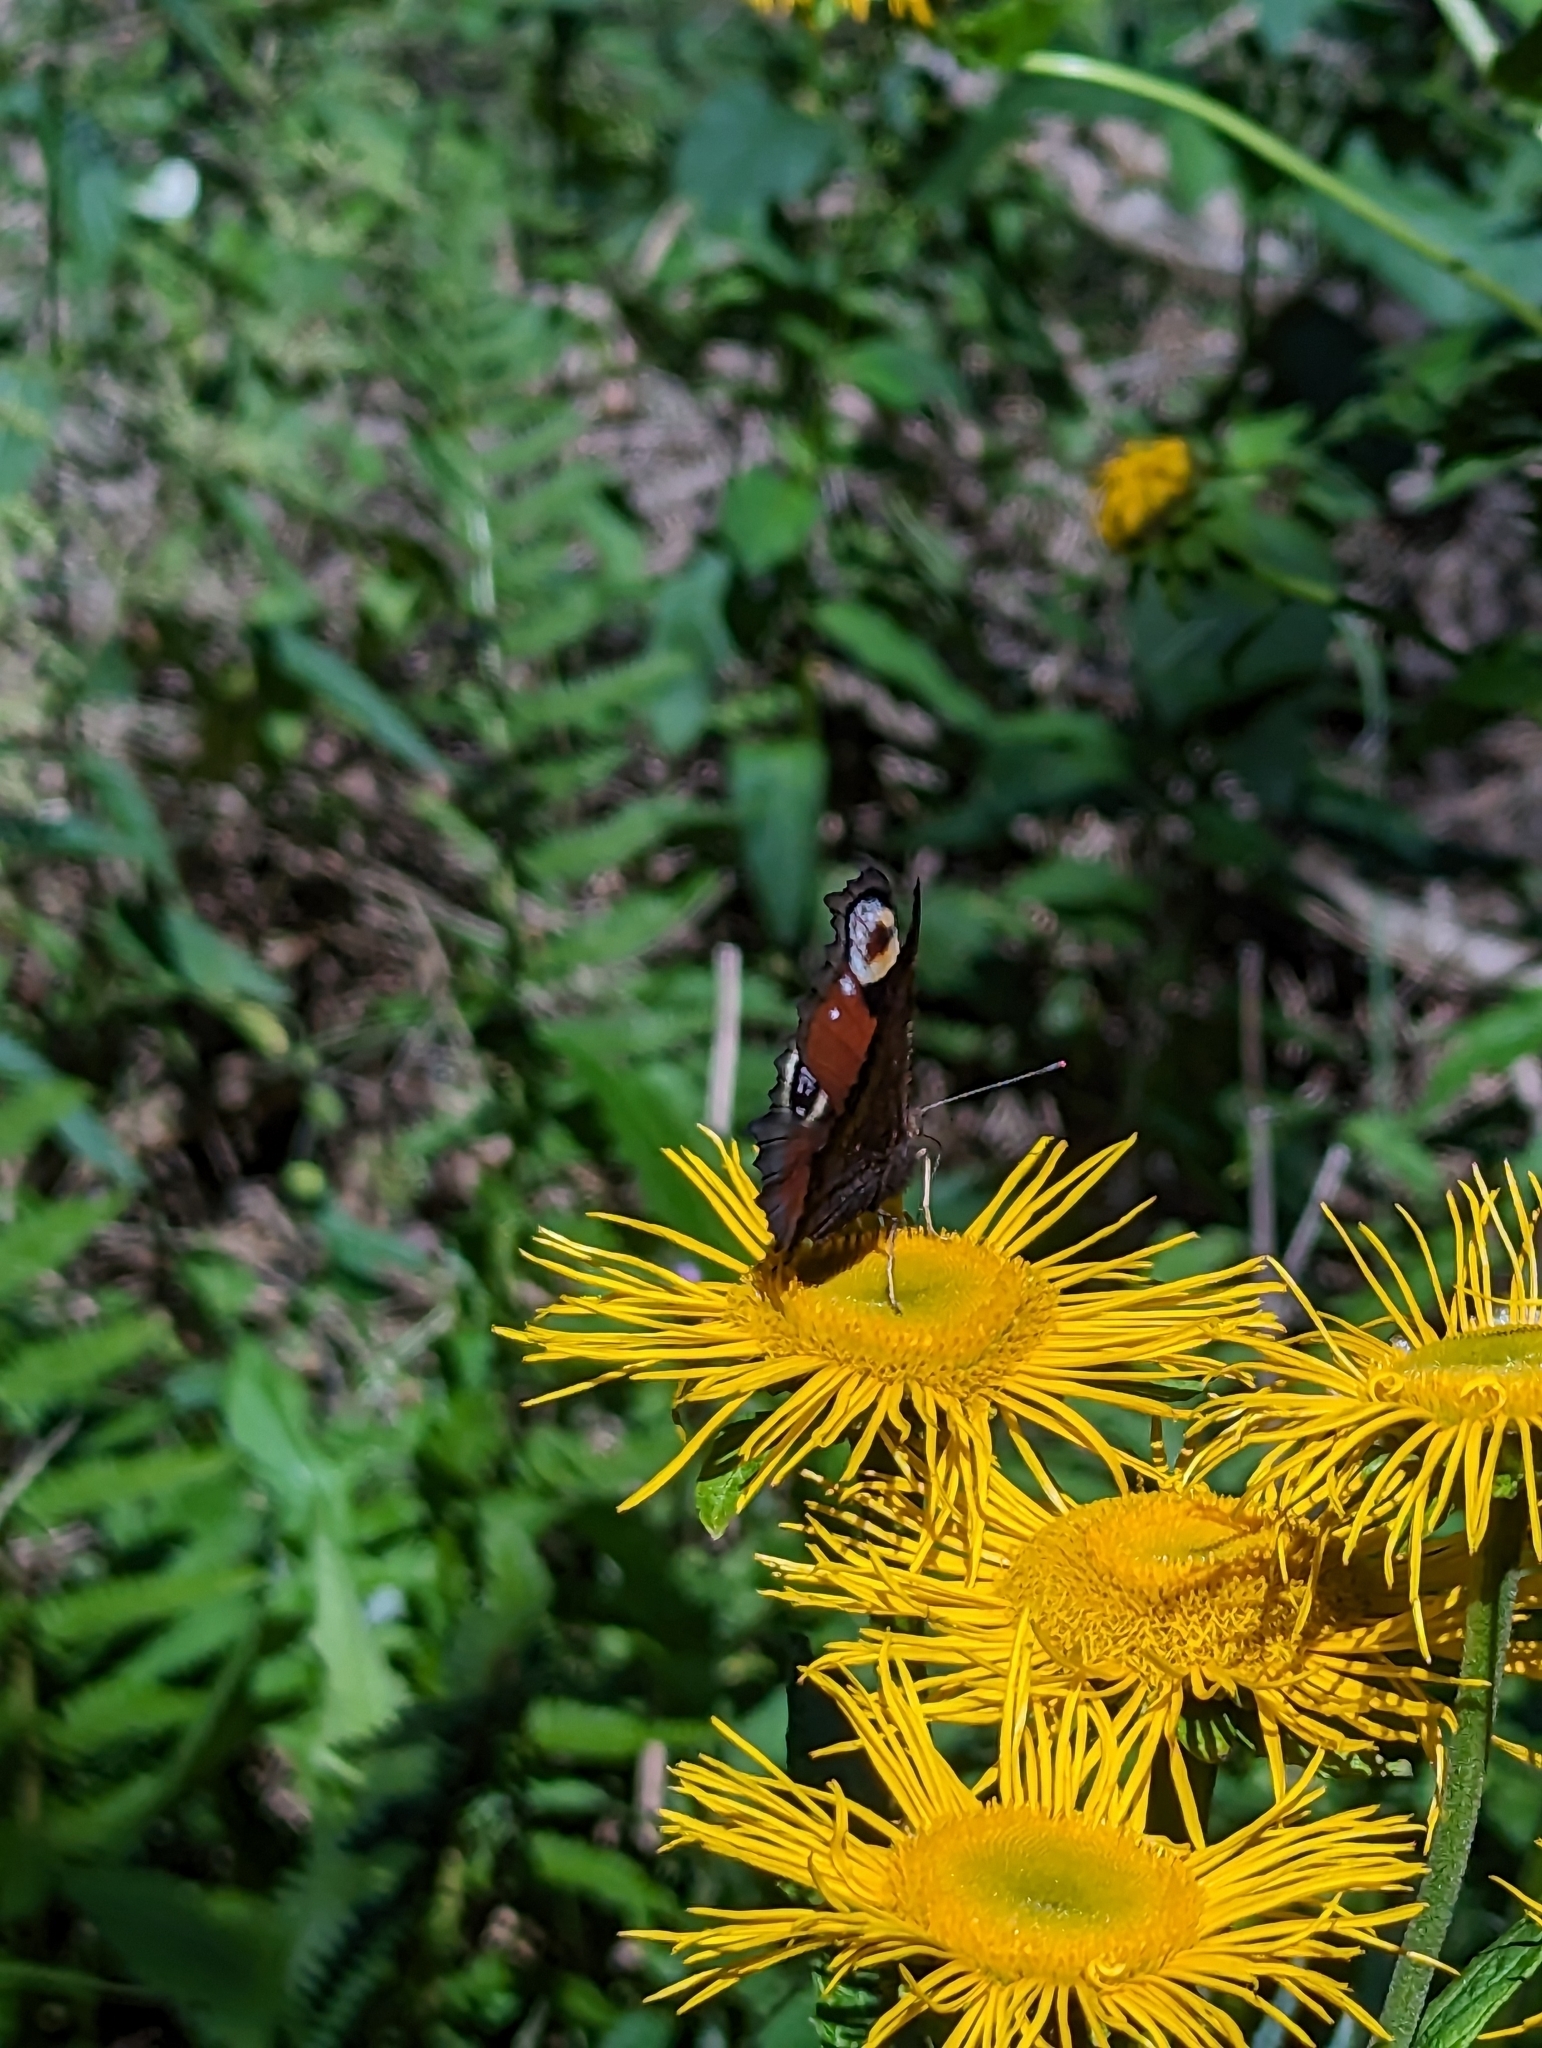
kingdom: Animalia
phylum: Arthropoda
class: Insecta
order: Lepidoptera
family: Nymphalidae
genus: Aglais
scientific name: Aglais io
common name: Peacock
